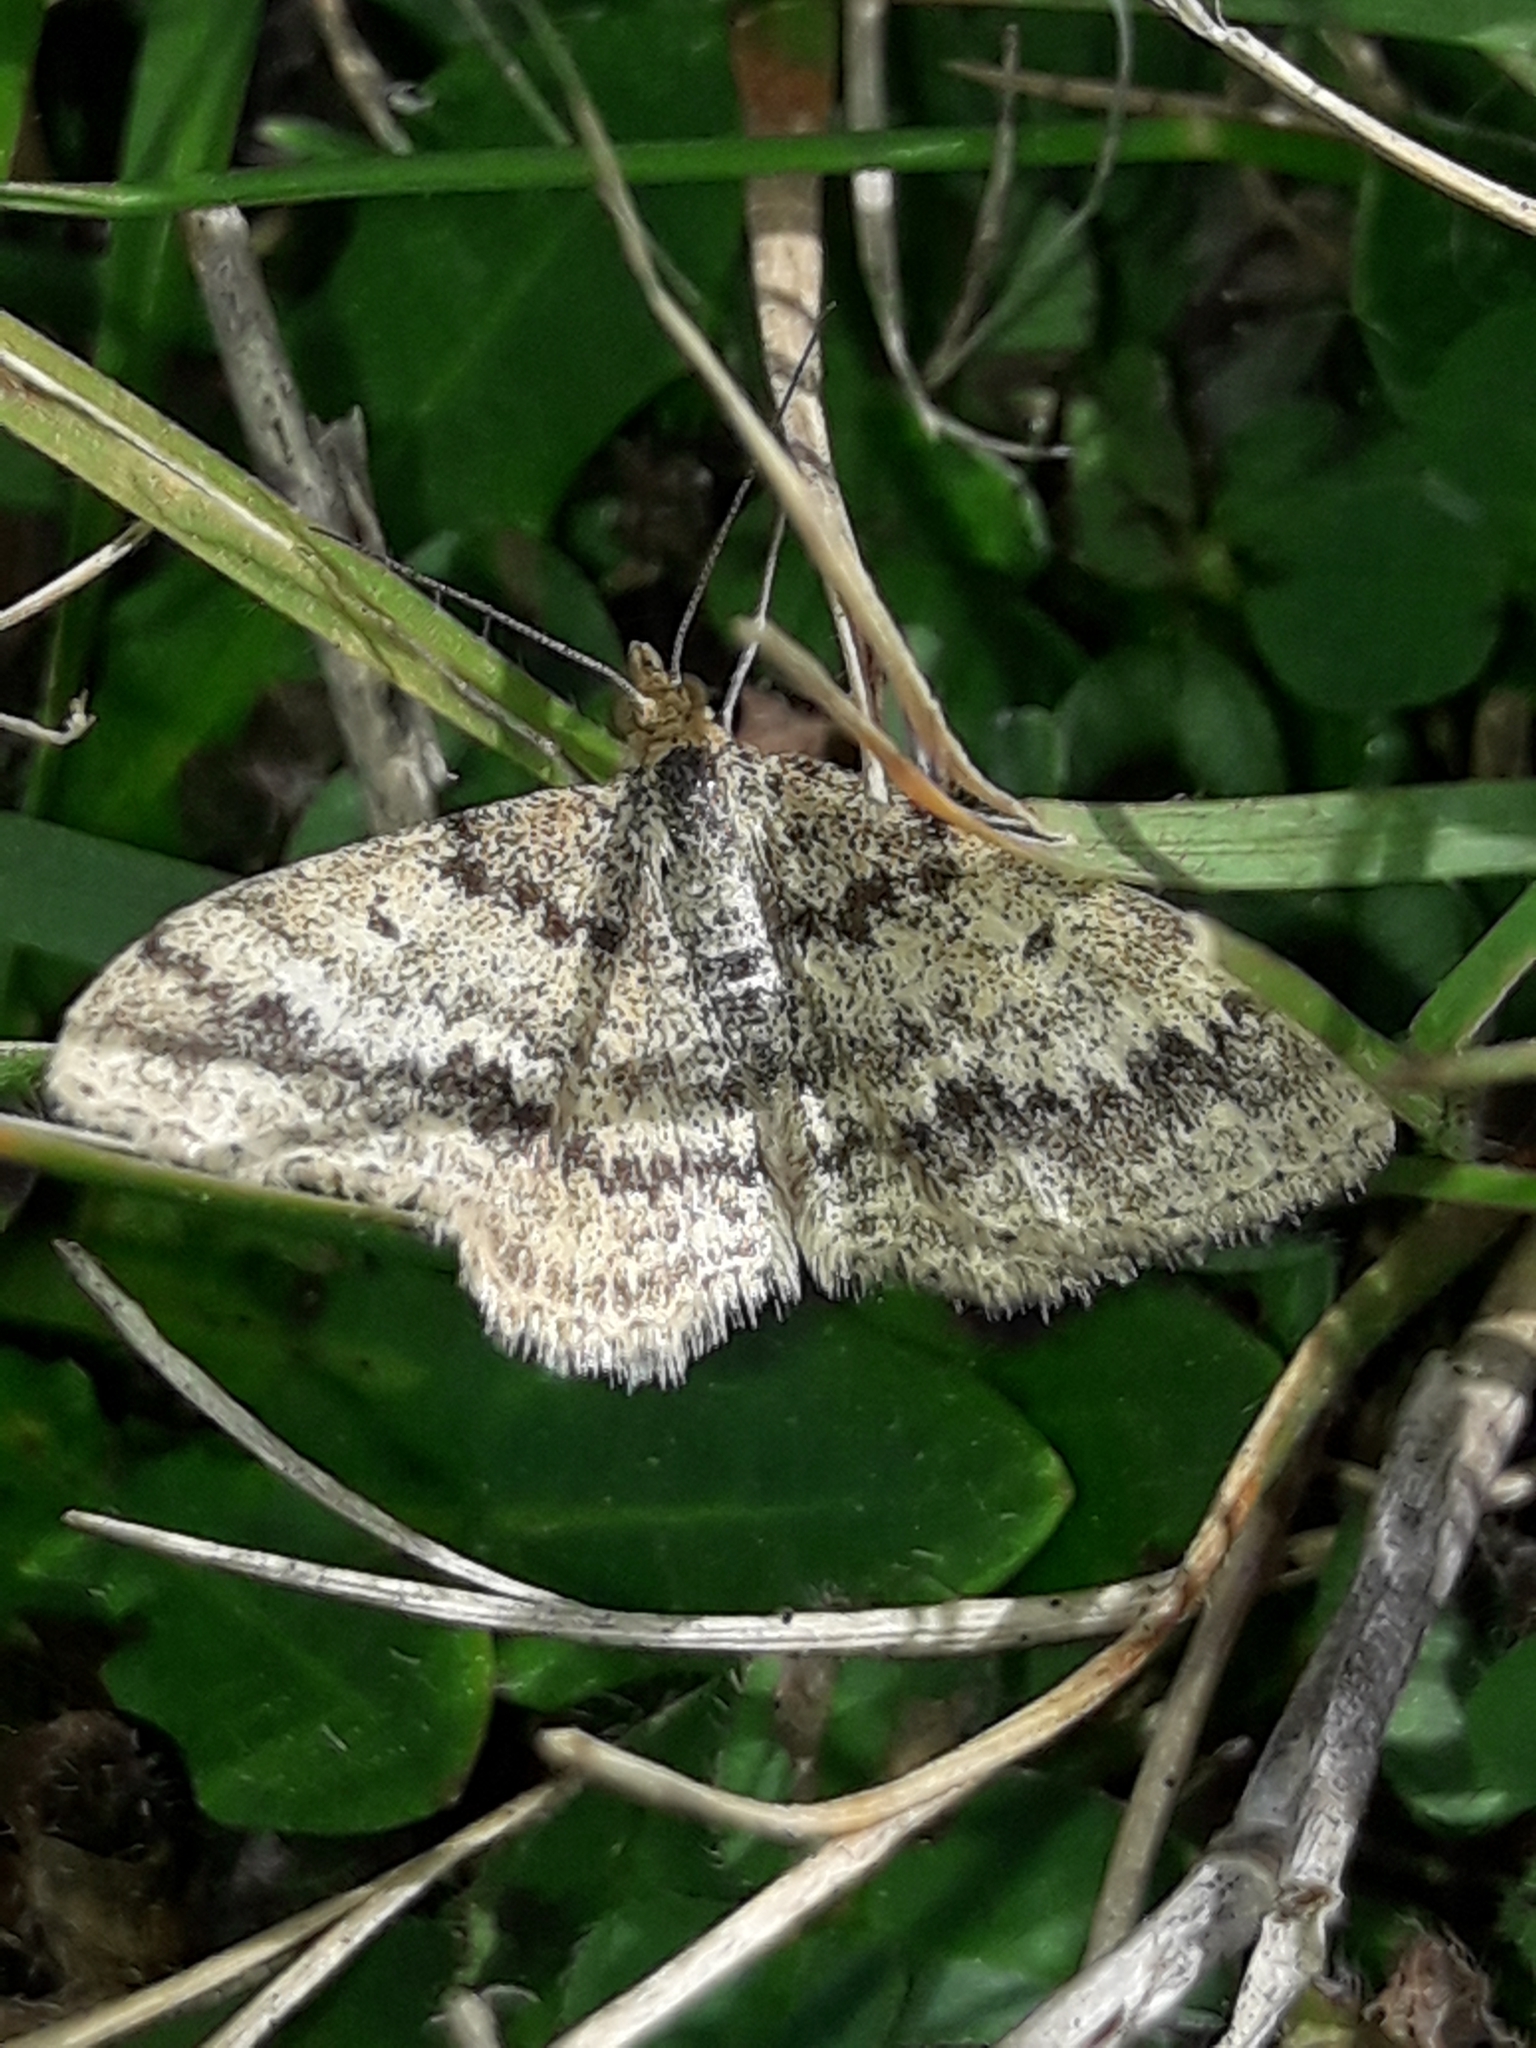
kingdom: Animalia
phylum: Arthropoda
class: Insecta
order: Lepidoptera
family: Geometridae
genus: Scopula
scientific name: Scopula rubraria
